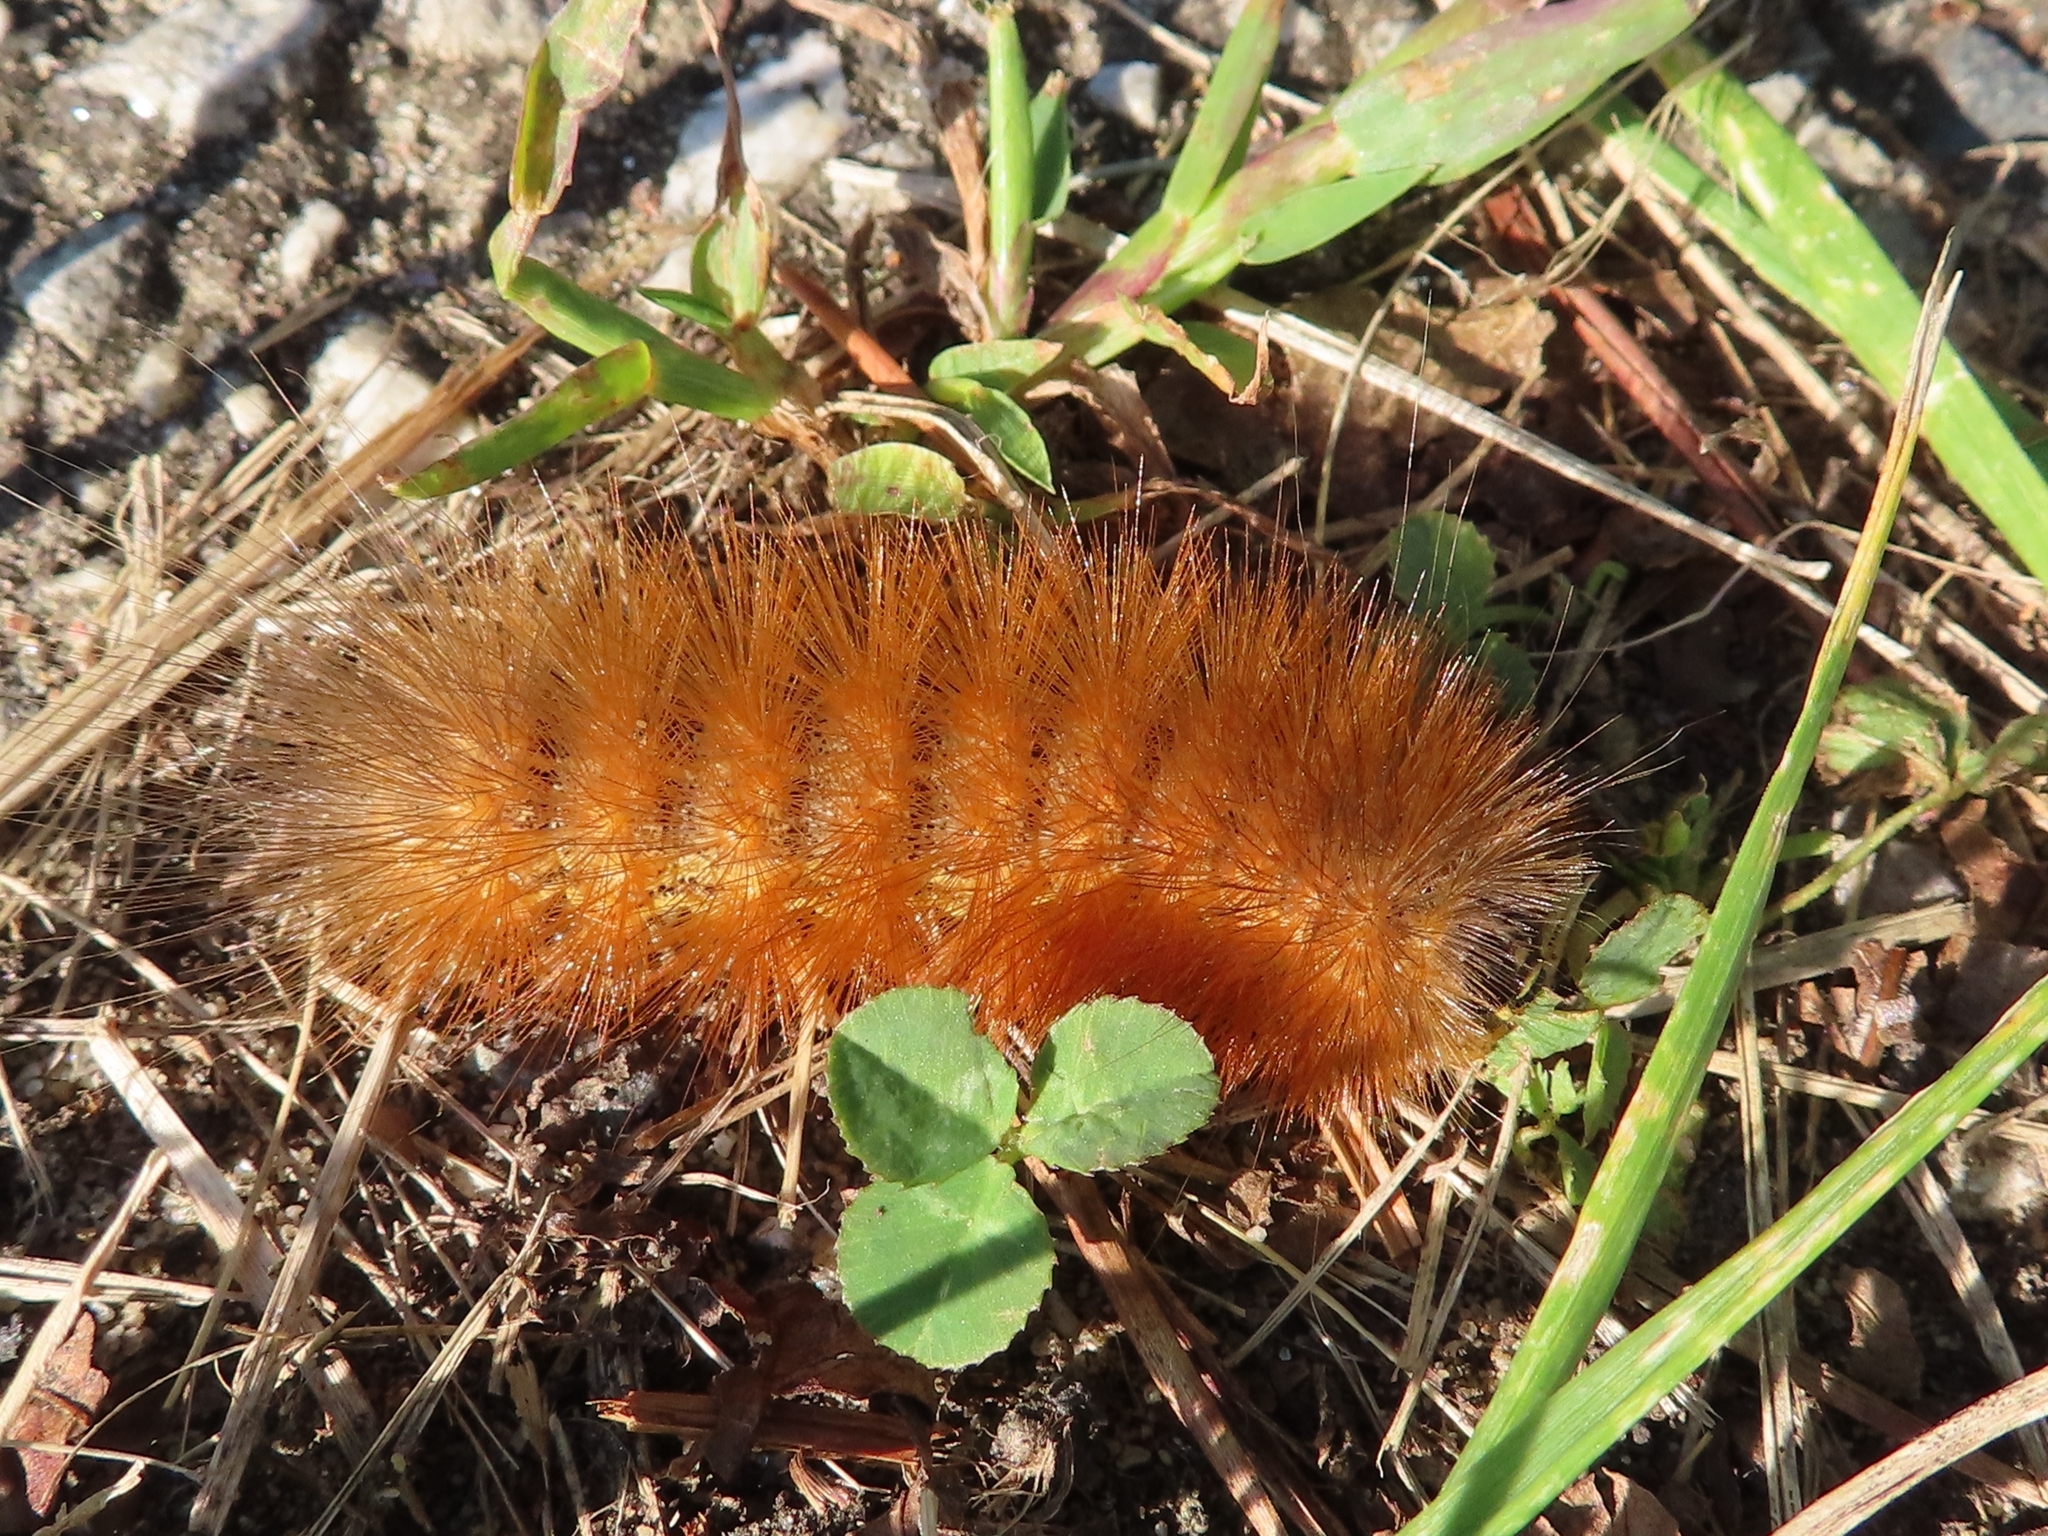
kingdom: Animalia
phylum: Arthropoda
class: Insecta
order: Lepidoptera
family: Erebidae
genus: Estigmene
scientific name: Estigmene acrea
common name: Salt marsh moth
